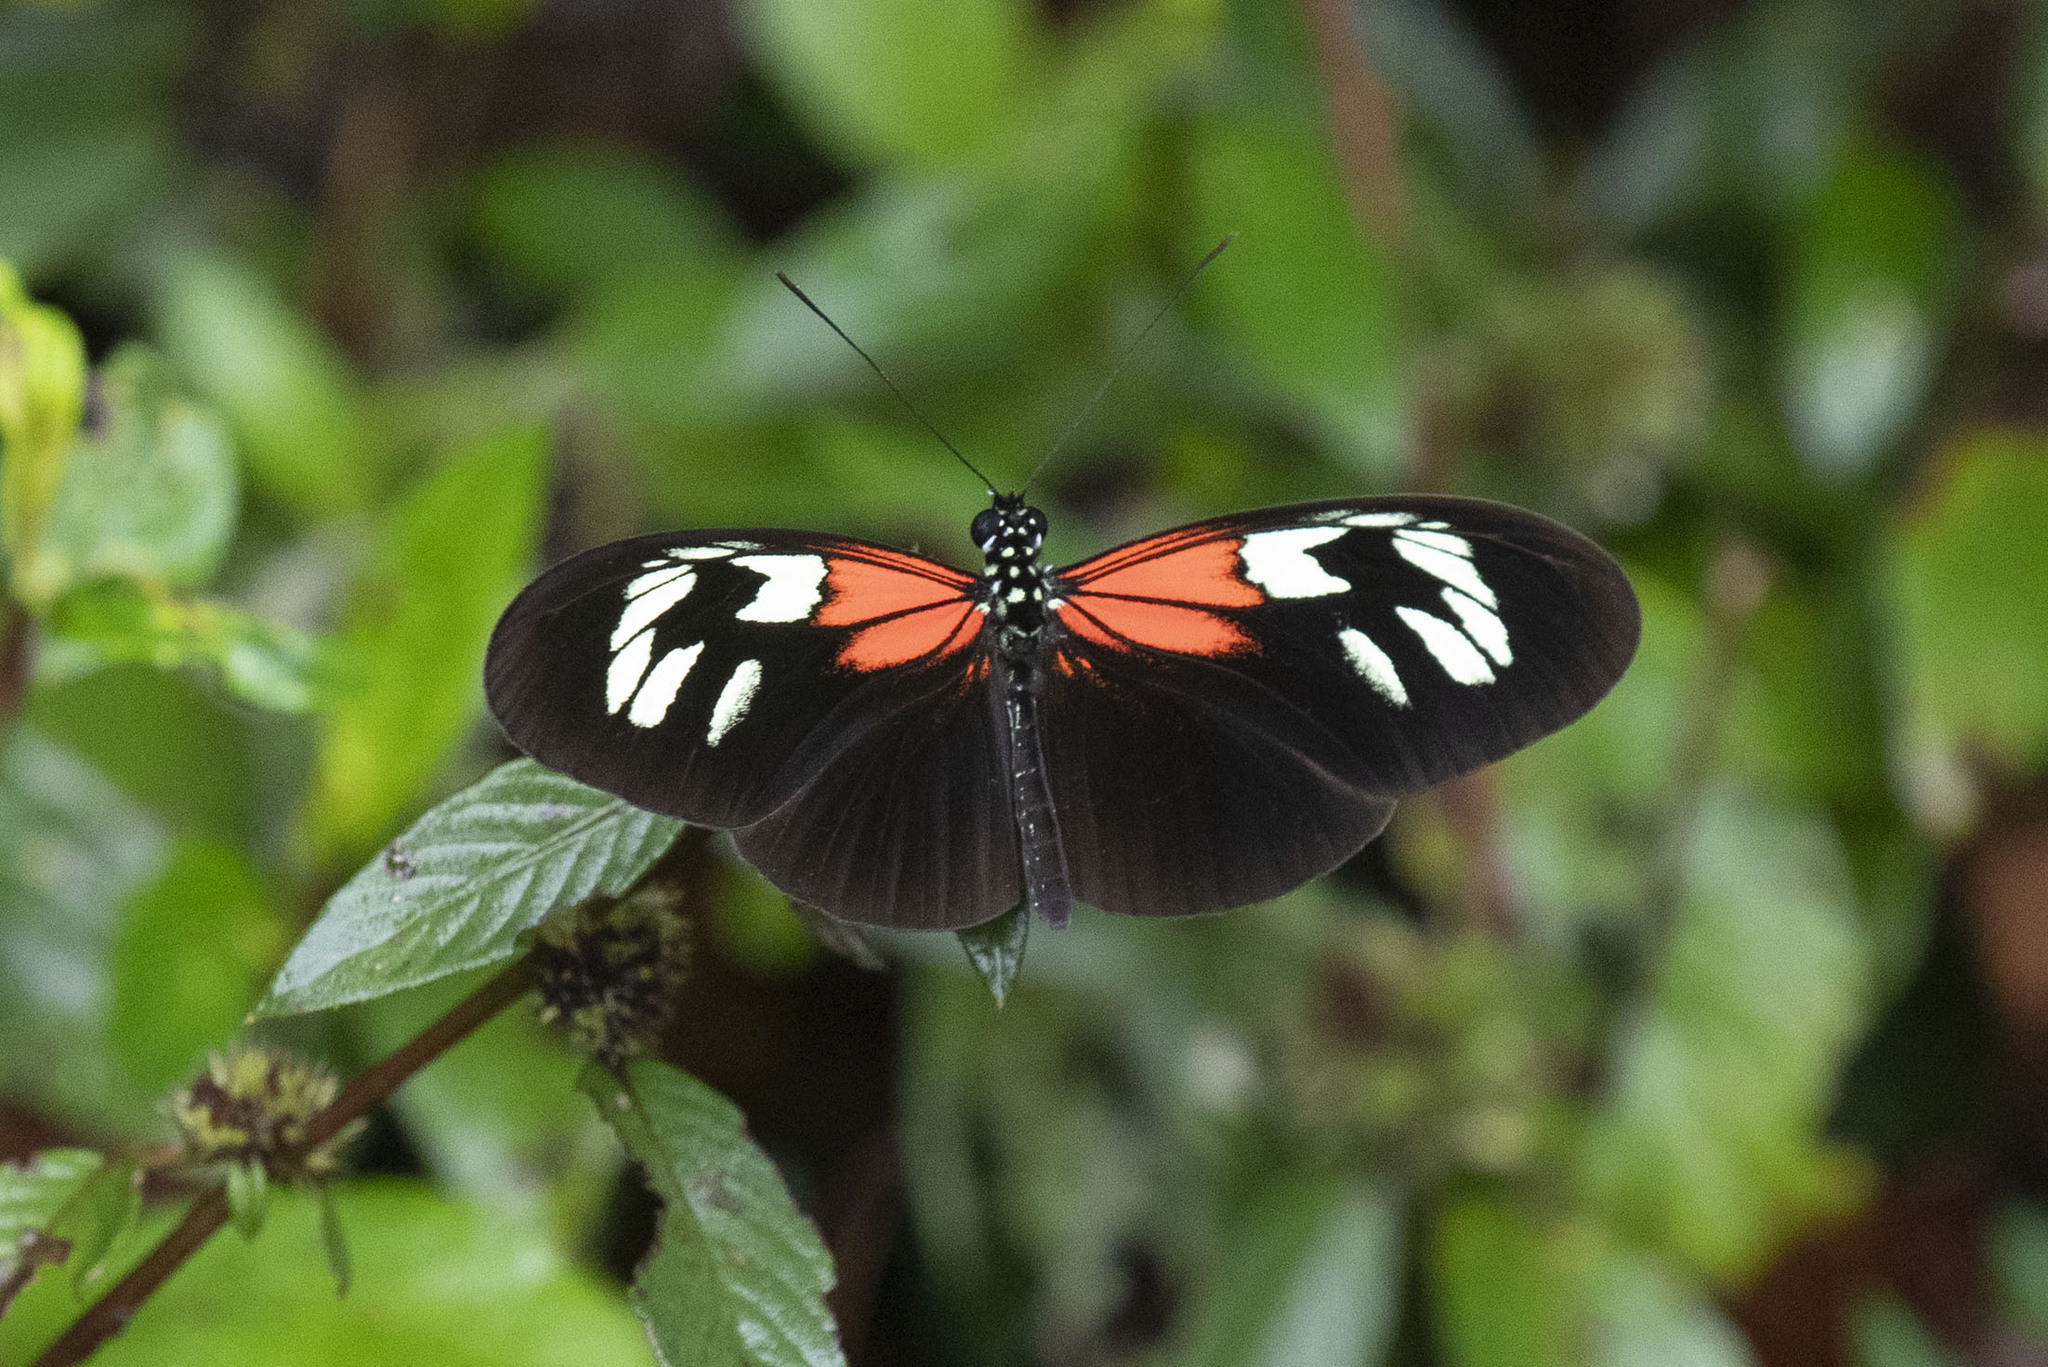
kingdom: Animalia
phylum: Arthropoda
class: Insecta
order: Lepidoptera
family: Nymphalidae
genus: Heliconius
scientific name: Heliconius erato
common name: Common patch longwing
